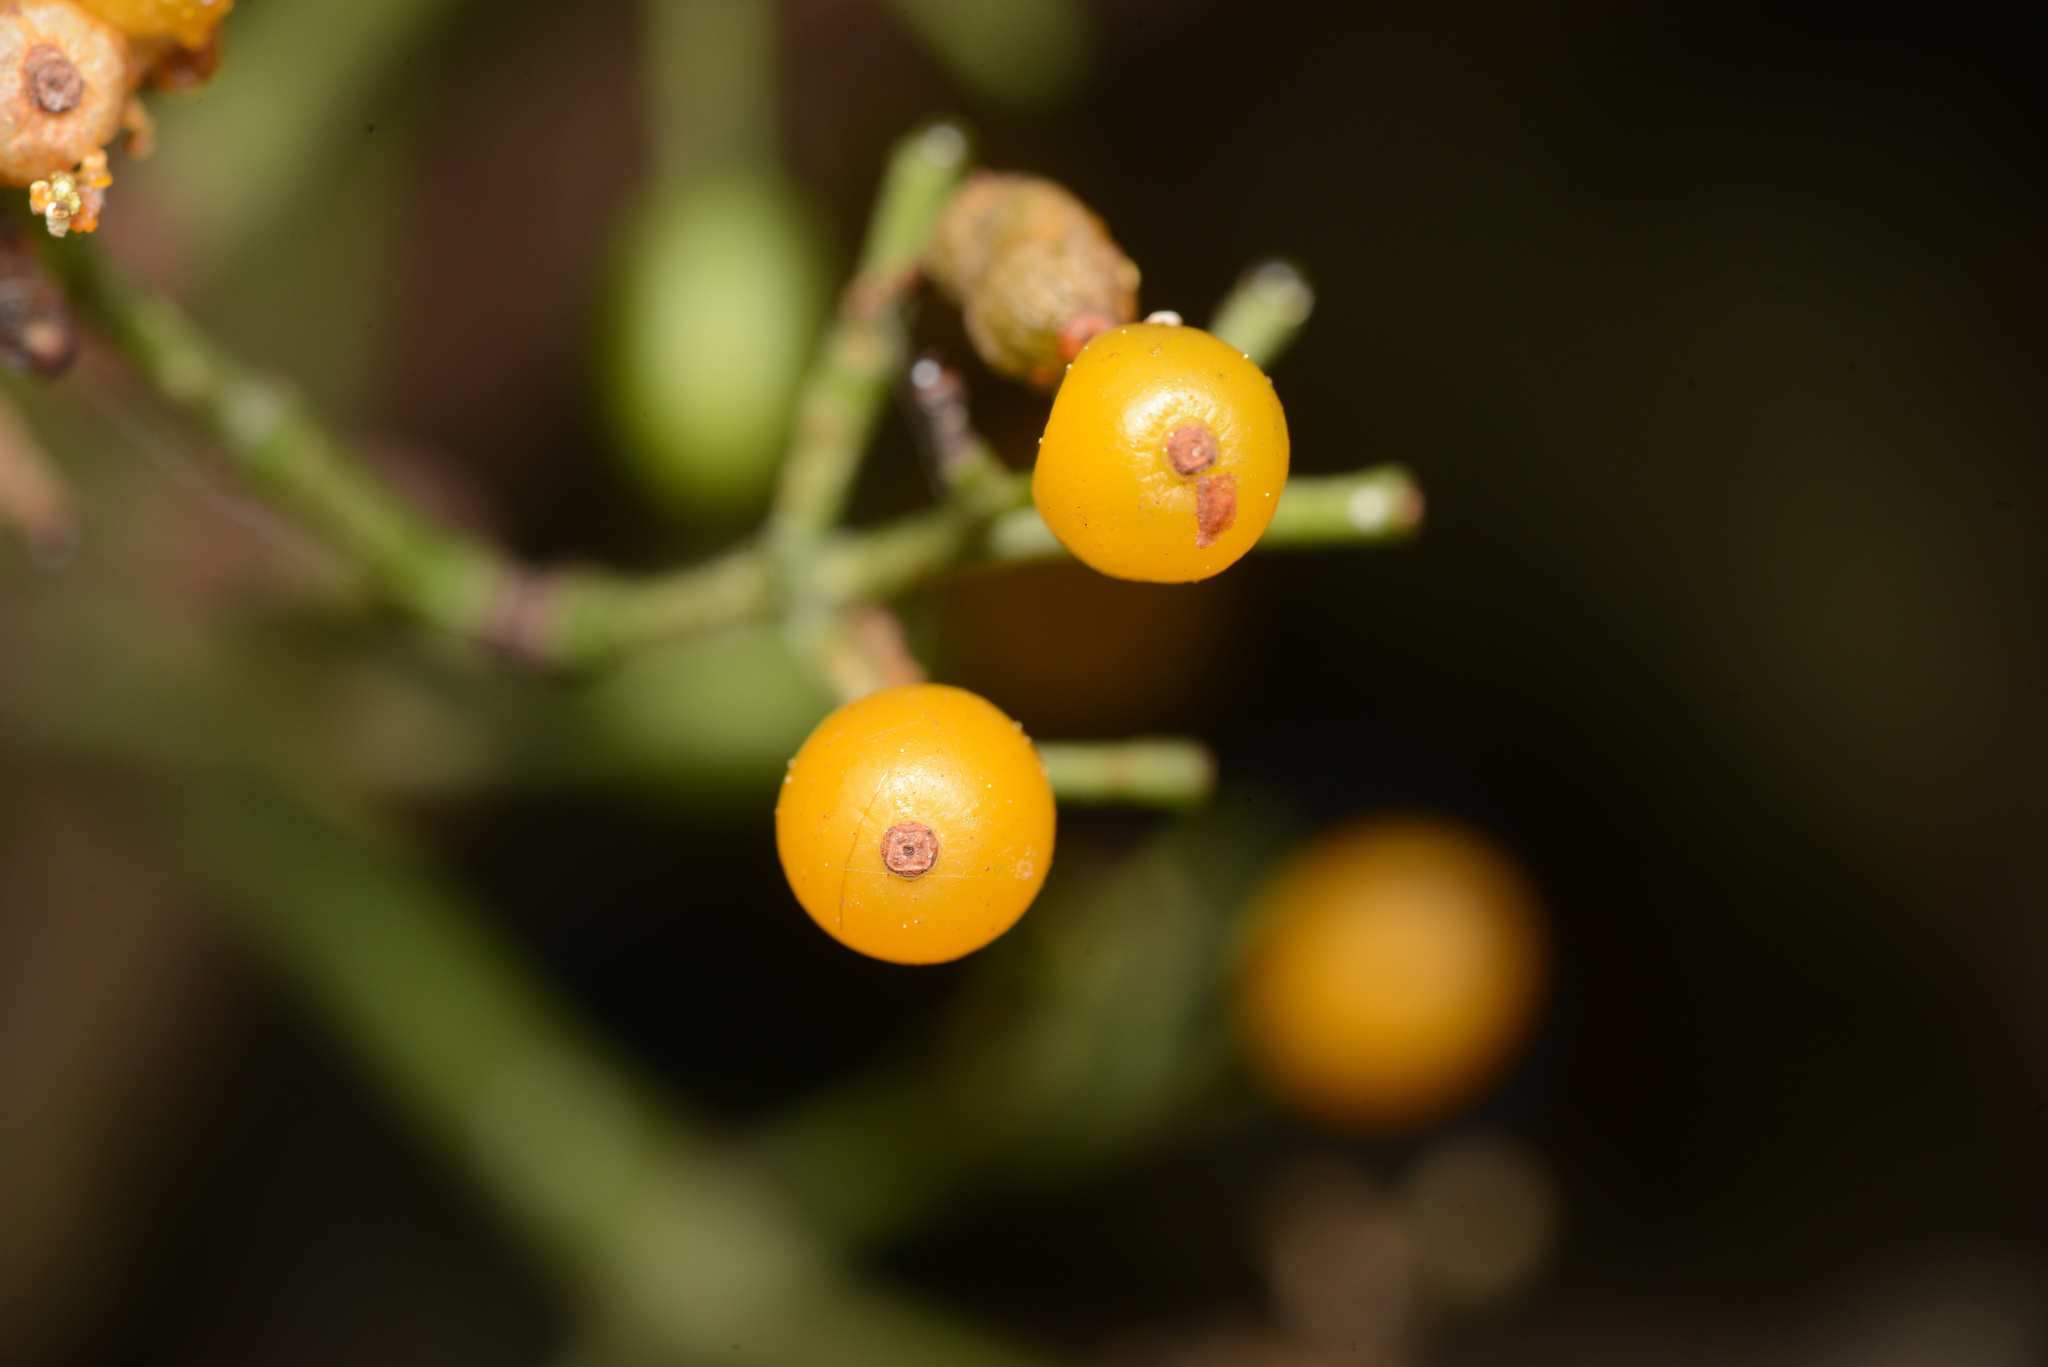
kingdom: Plantae
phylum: Tracheophyta
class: Magnoliopsida
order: Santalales
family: Loranthaceae
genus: Ileostylus
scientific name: Ileostylus micranthus
